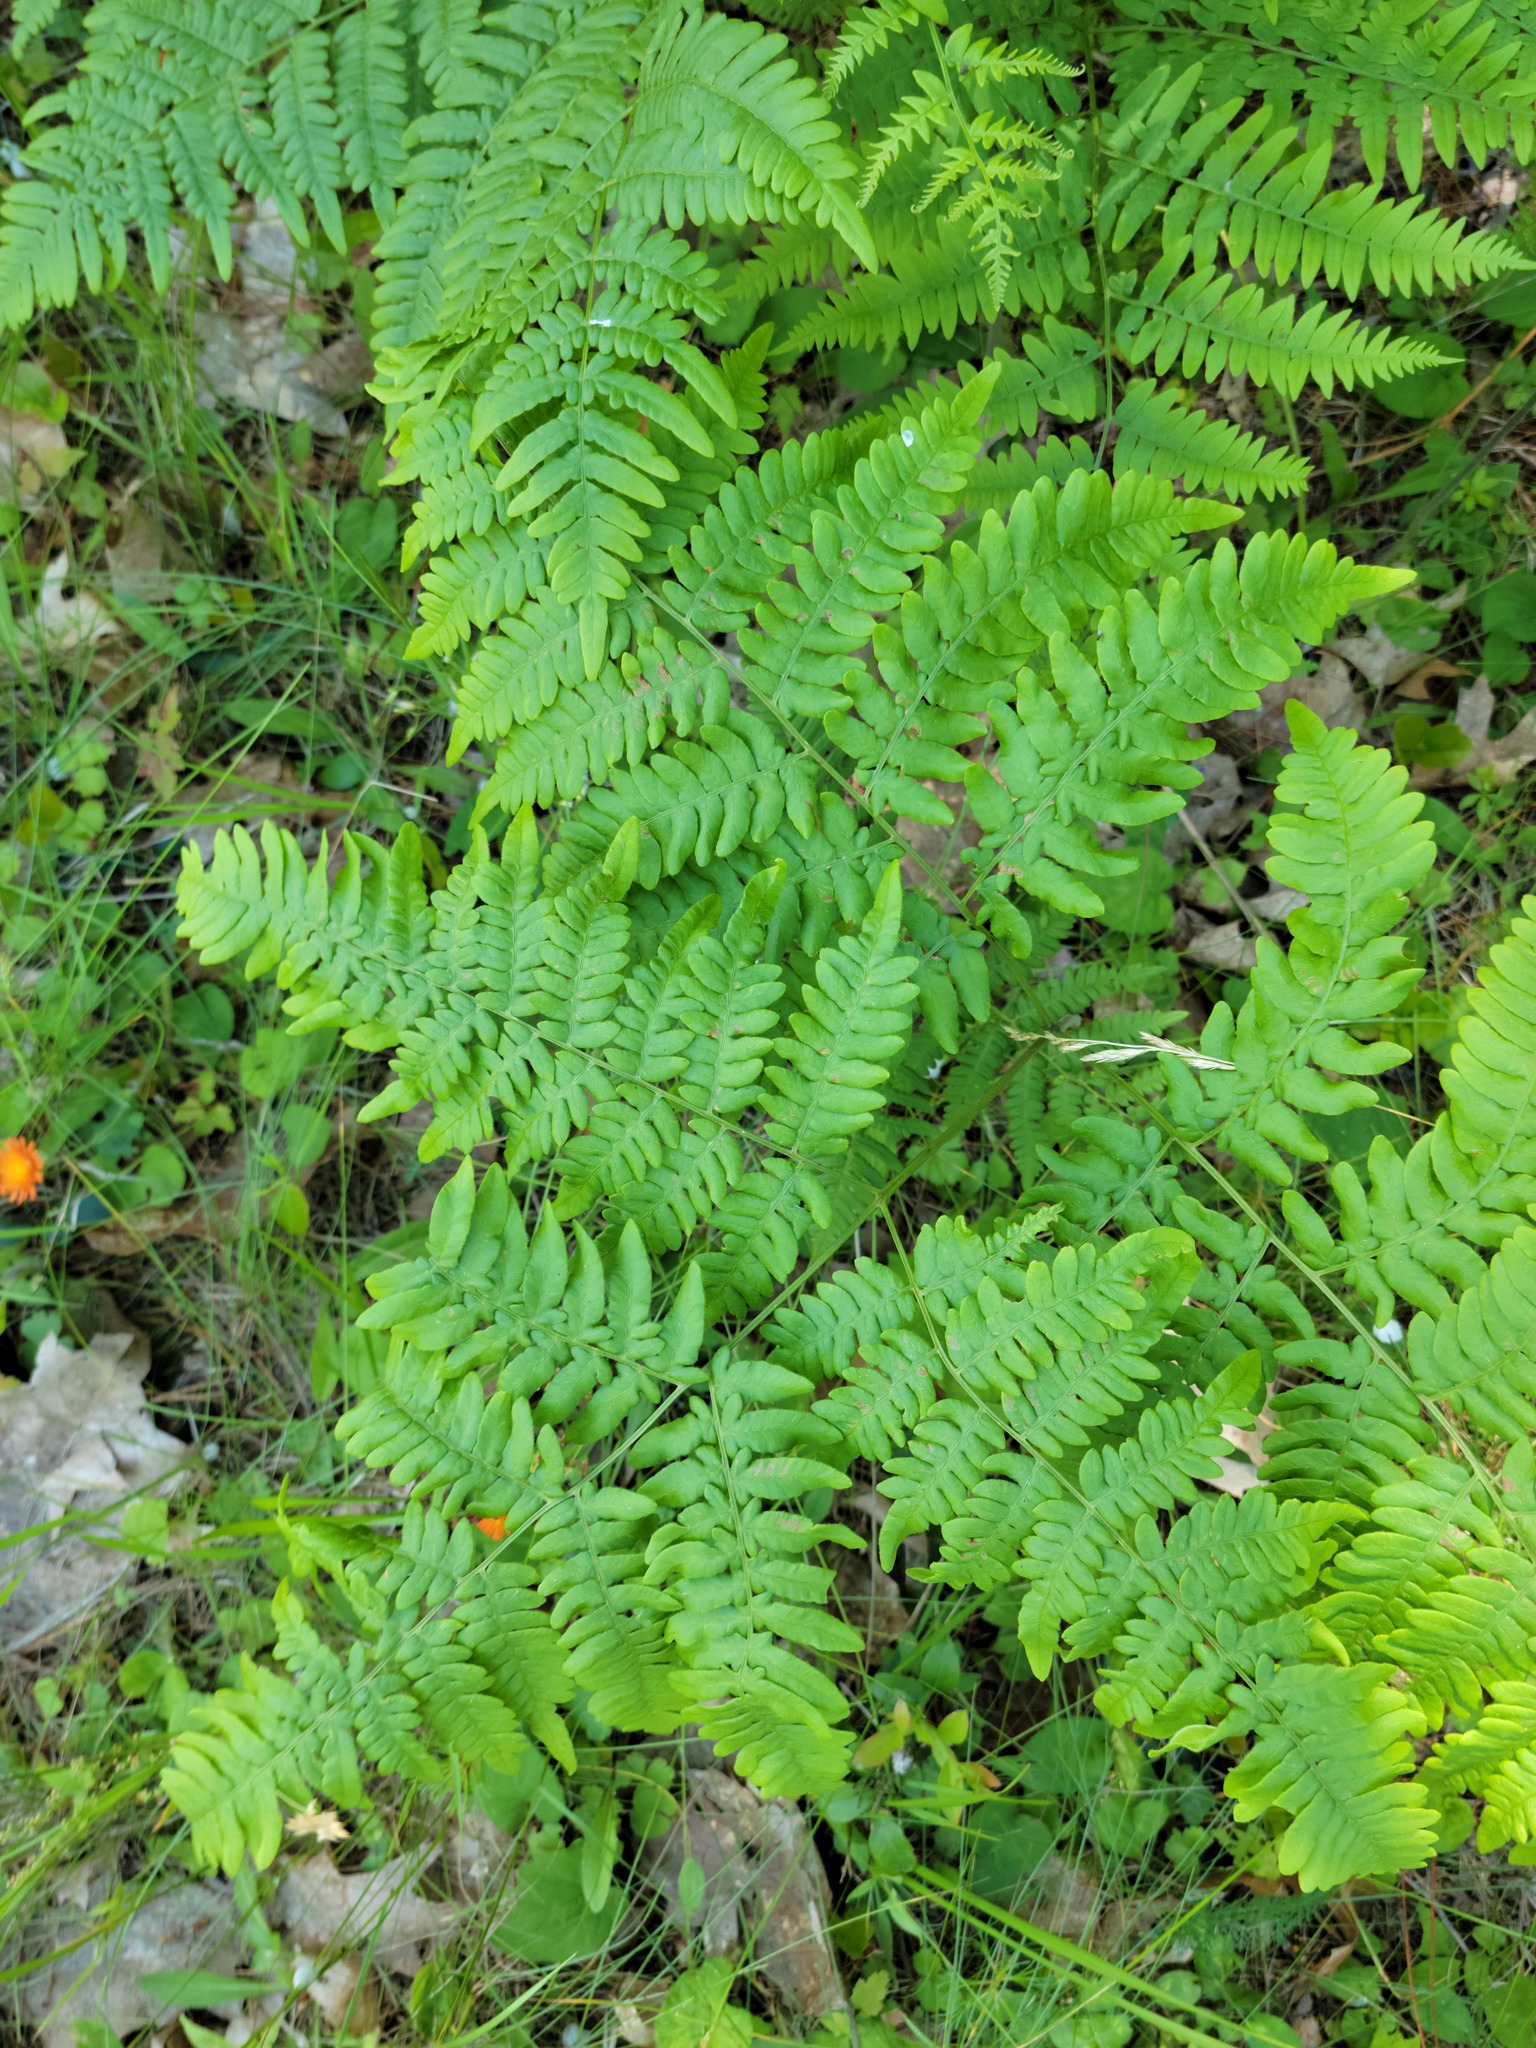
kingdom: Plantae
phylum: Tracheophyta
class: Polypodiopsida
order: Polypodiales
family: Dennstaedtiaceae
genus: Pteridium
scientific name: Pteridium aquilinum
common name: Bracken
